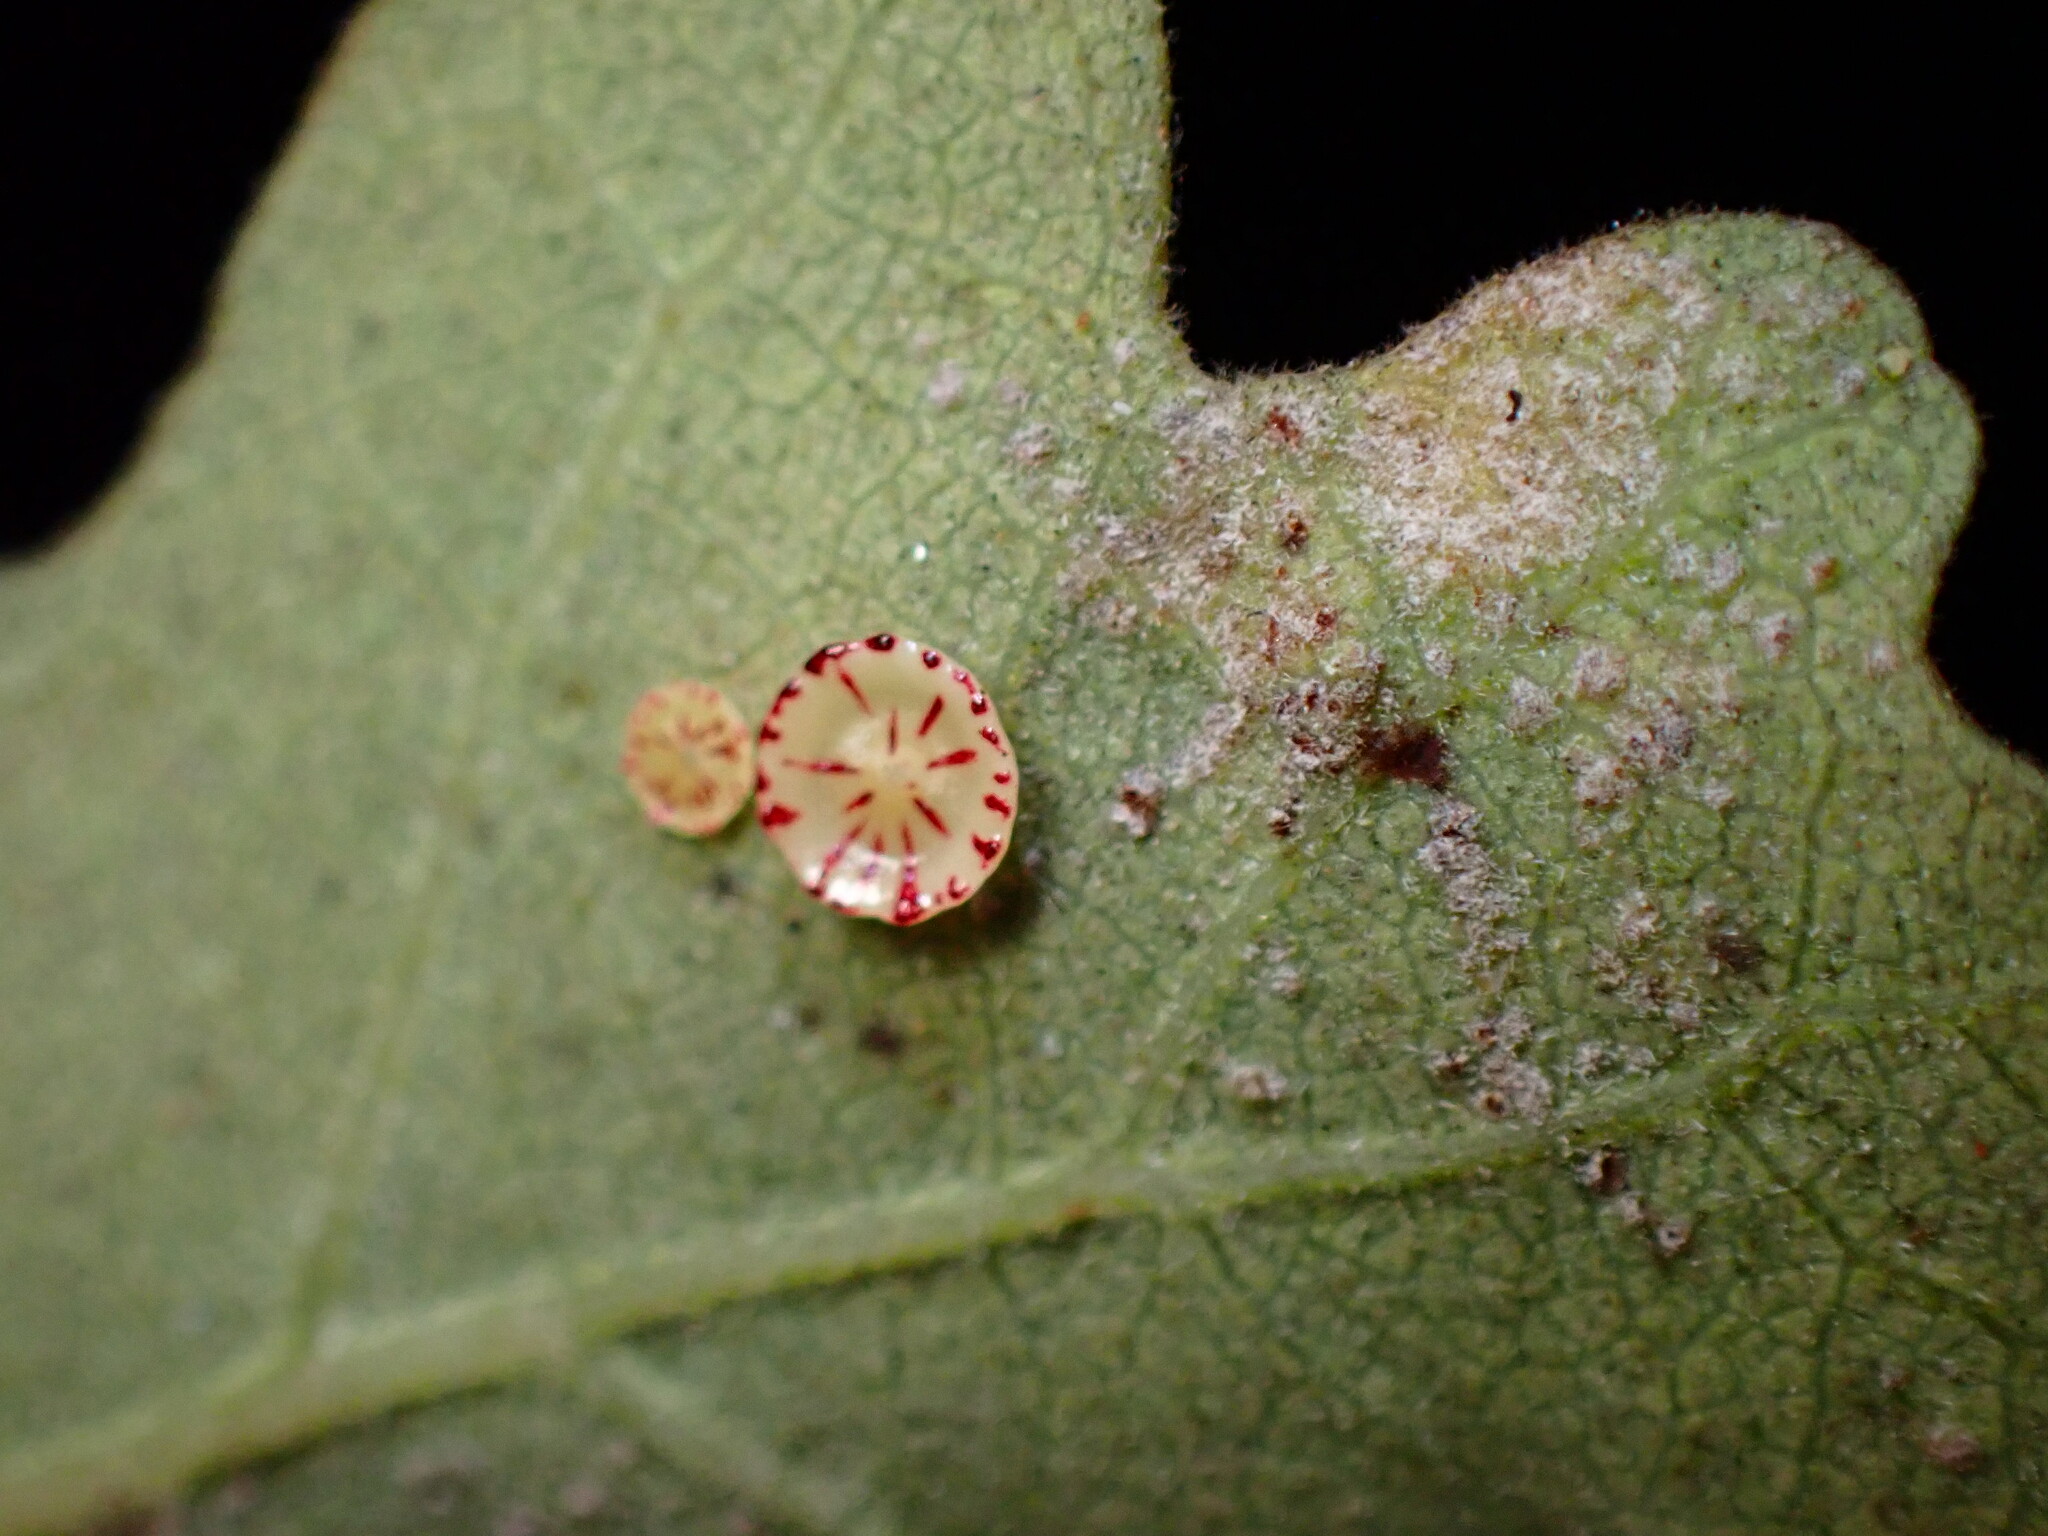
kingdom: Animalia
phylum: Arthropoda
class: Insecta
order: Hymenoptera
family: Cynipidae
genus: Andricus
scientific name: Andricus
